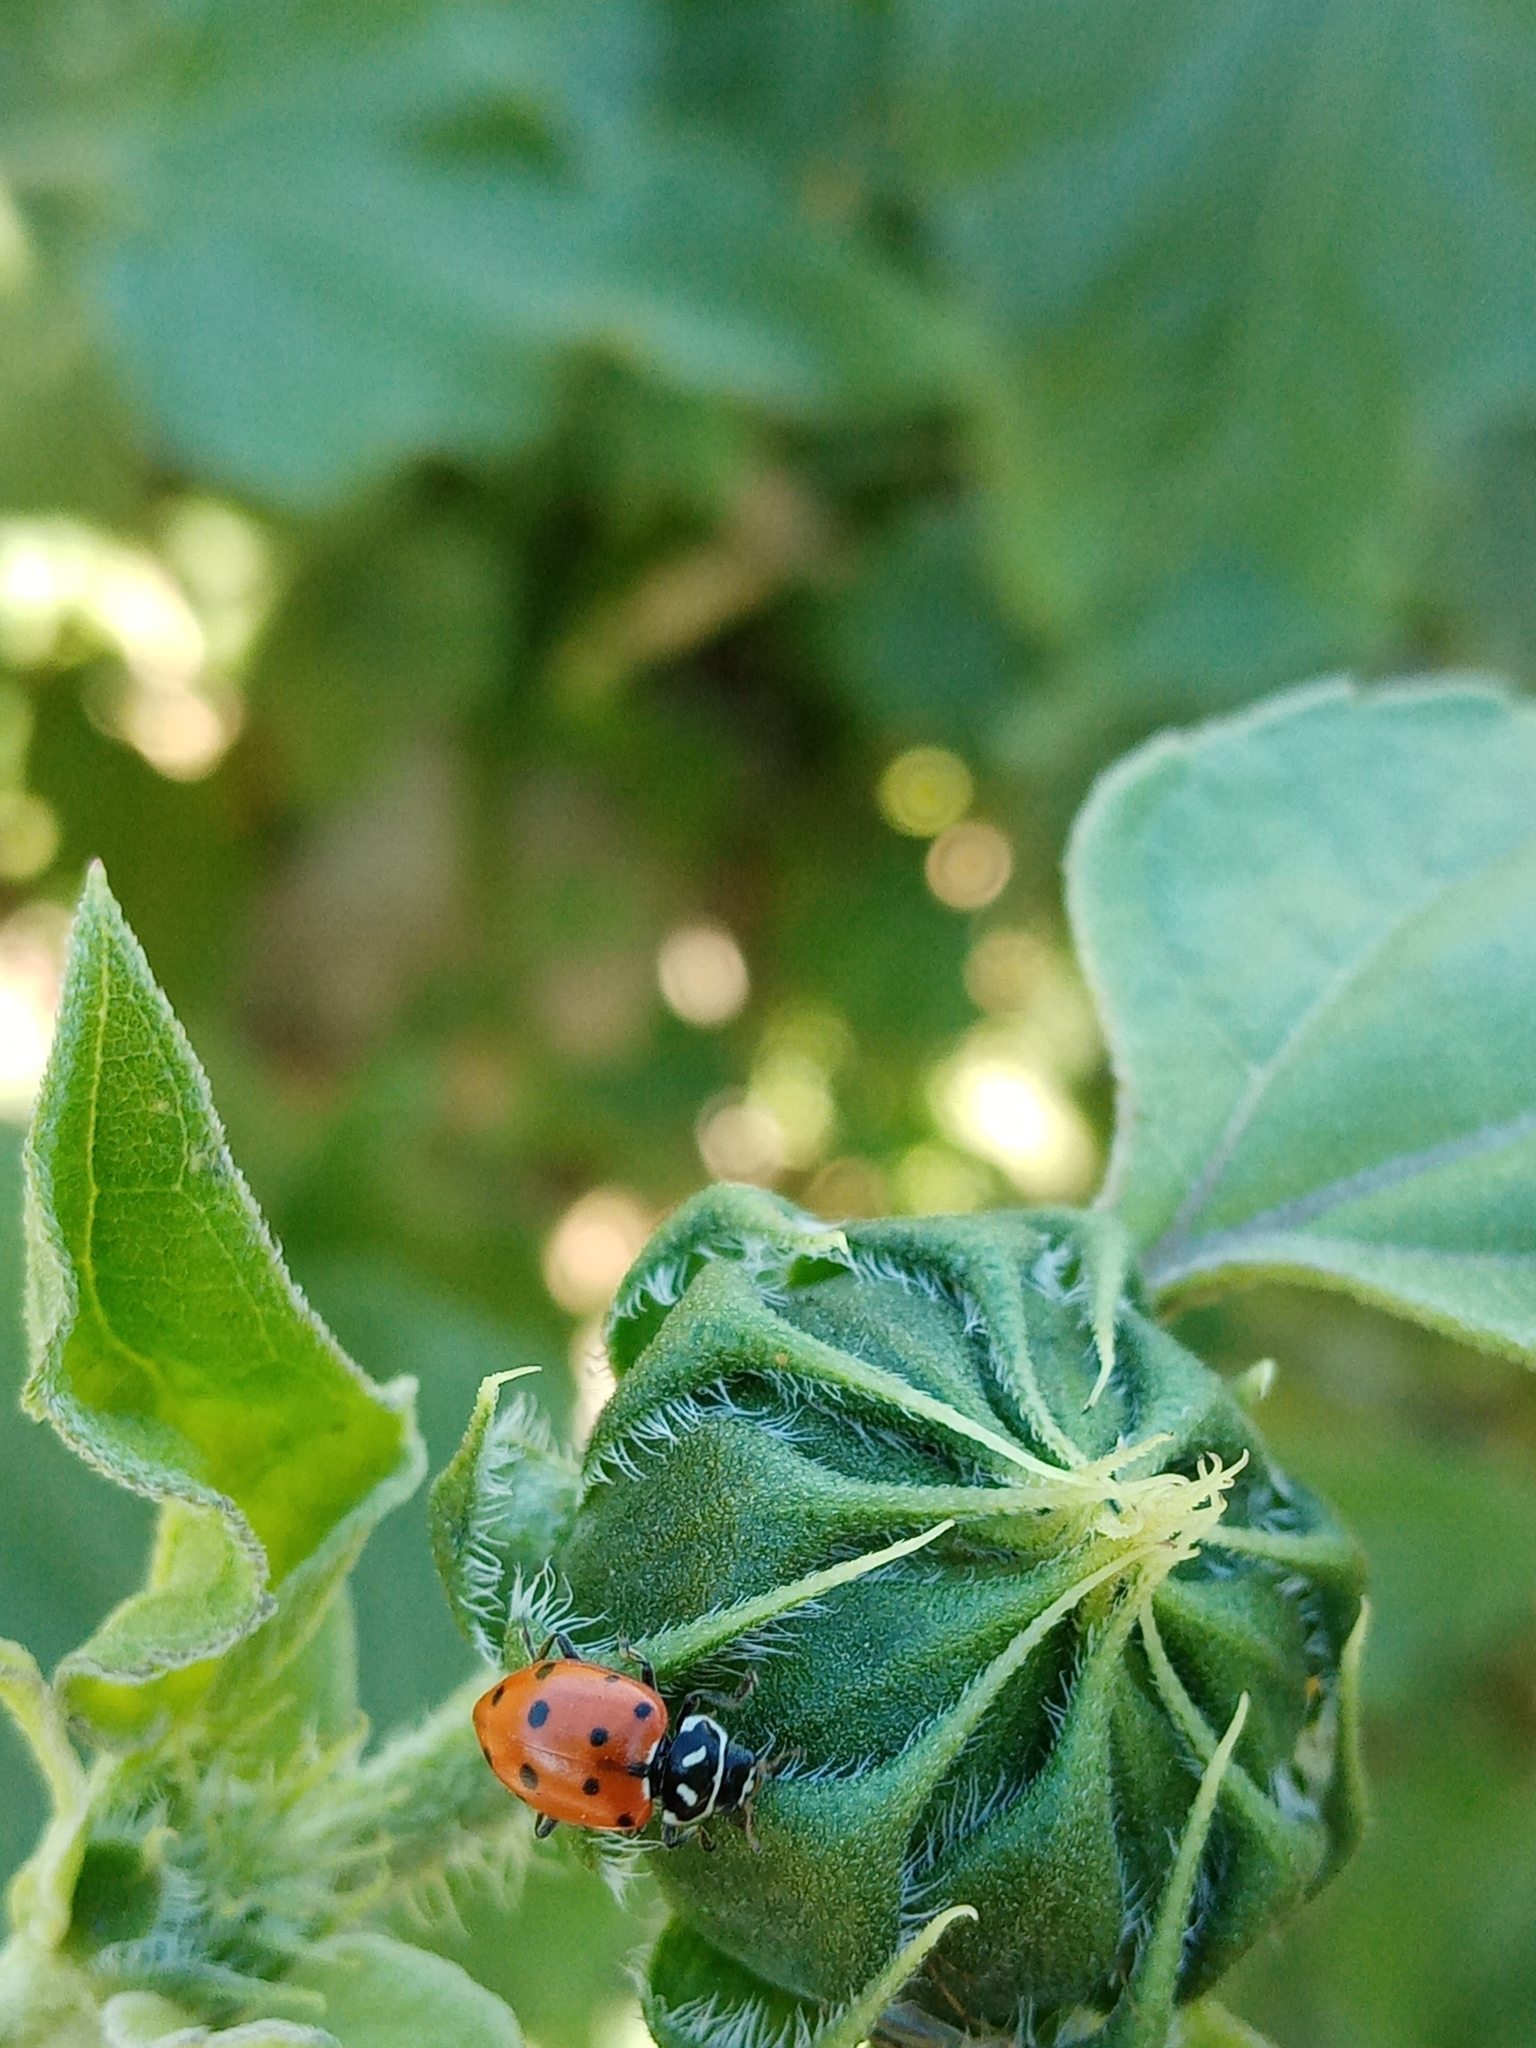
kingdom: Animalia
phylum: Arthropoda
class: Insecta
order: Coleoptera
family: Coccinellidae
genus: Hippodamia
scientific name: Hippodamia convergens
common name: Convergent lady beetle
